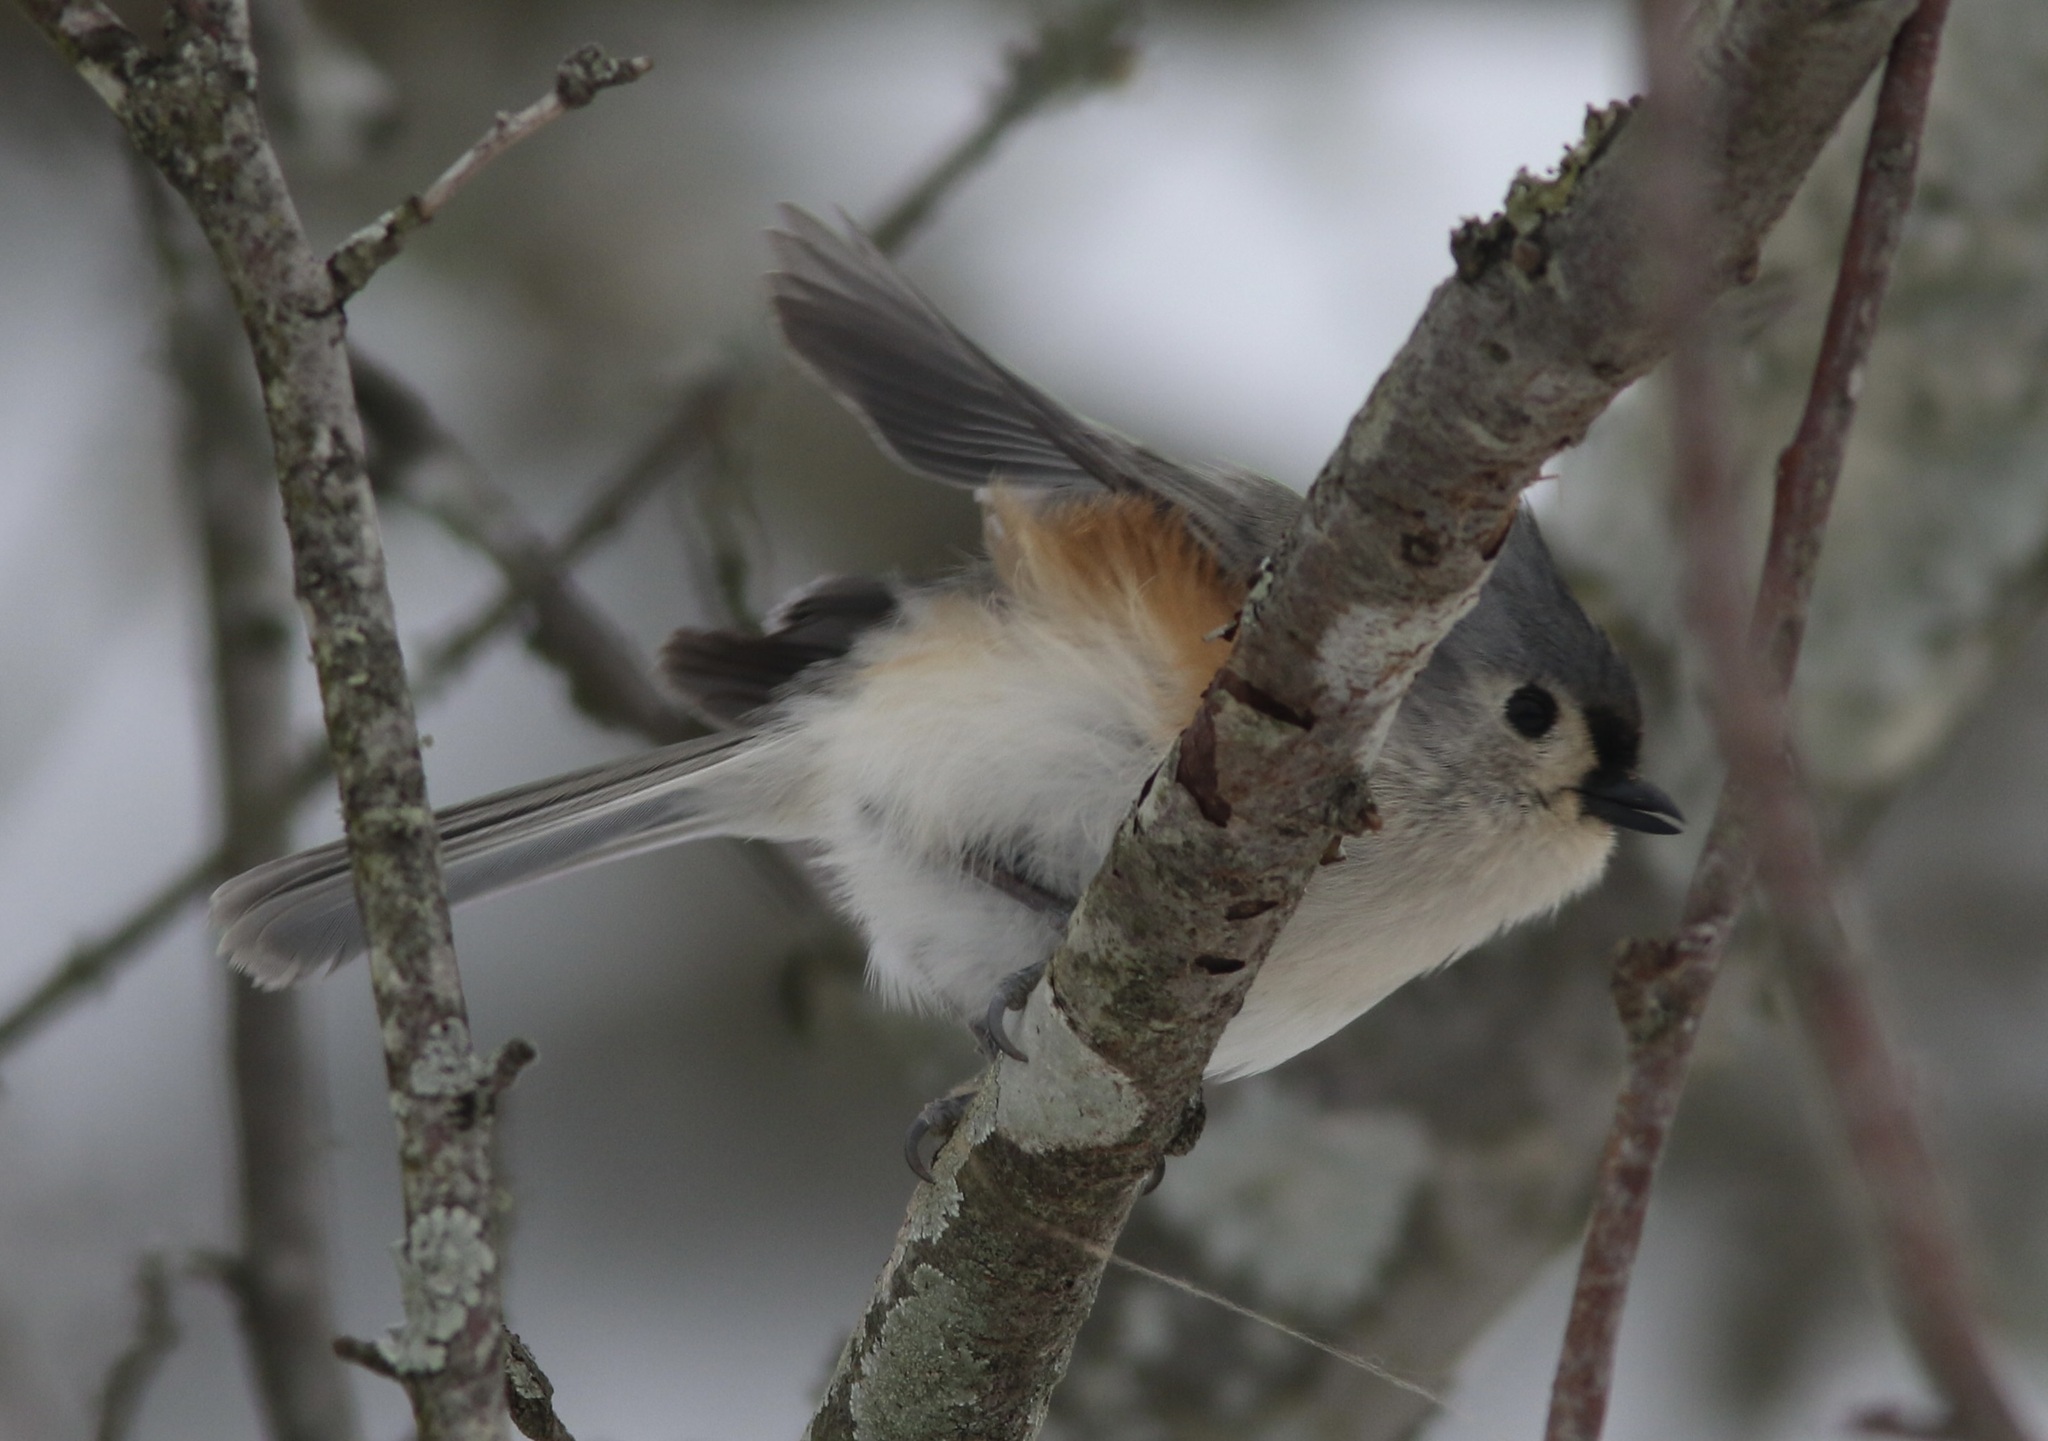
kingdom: Animalia
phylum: Chordata
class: Aves
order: Passeriformes
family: Paridae
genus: Baeolophus
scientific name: Baeolophus bicolor
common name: Tufted titmouse
